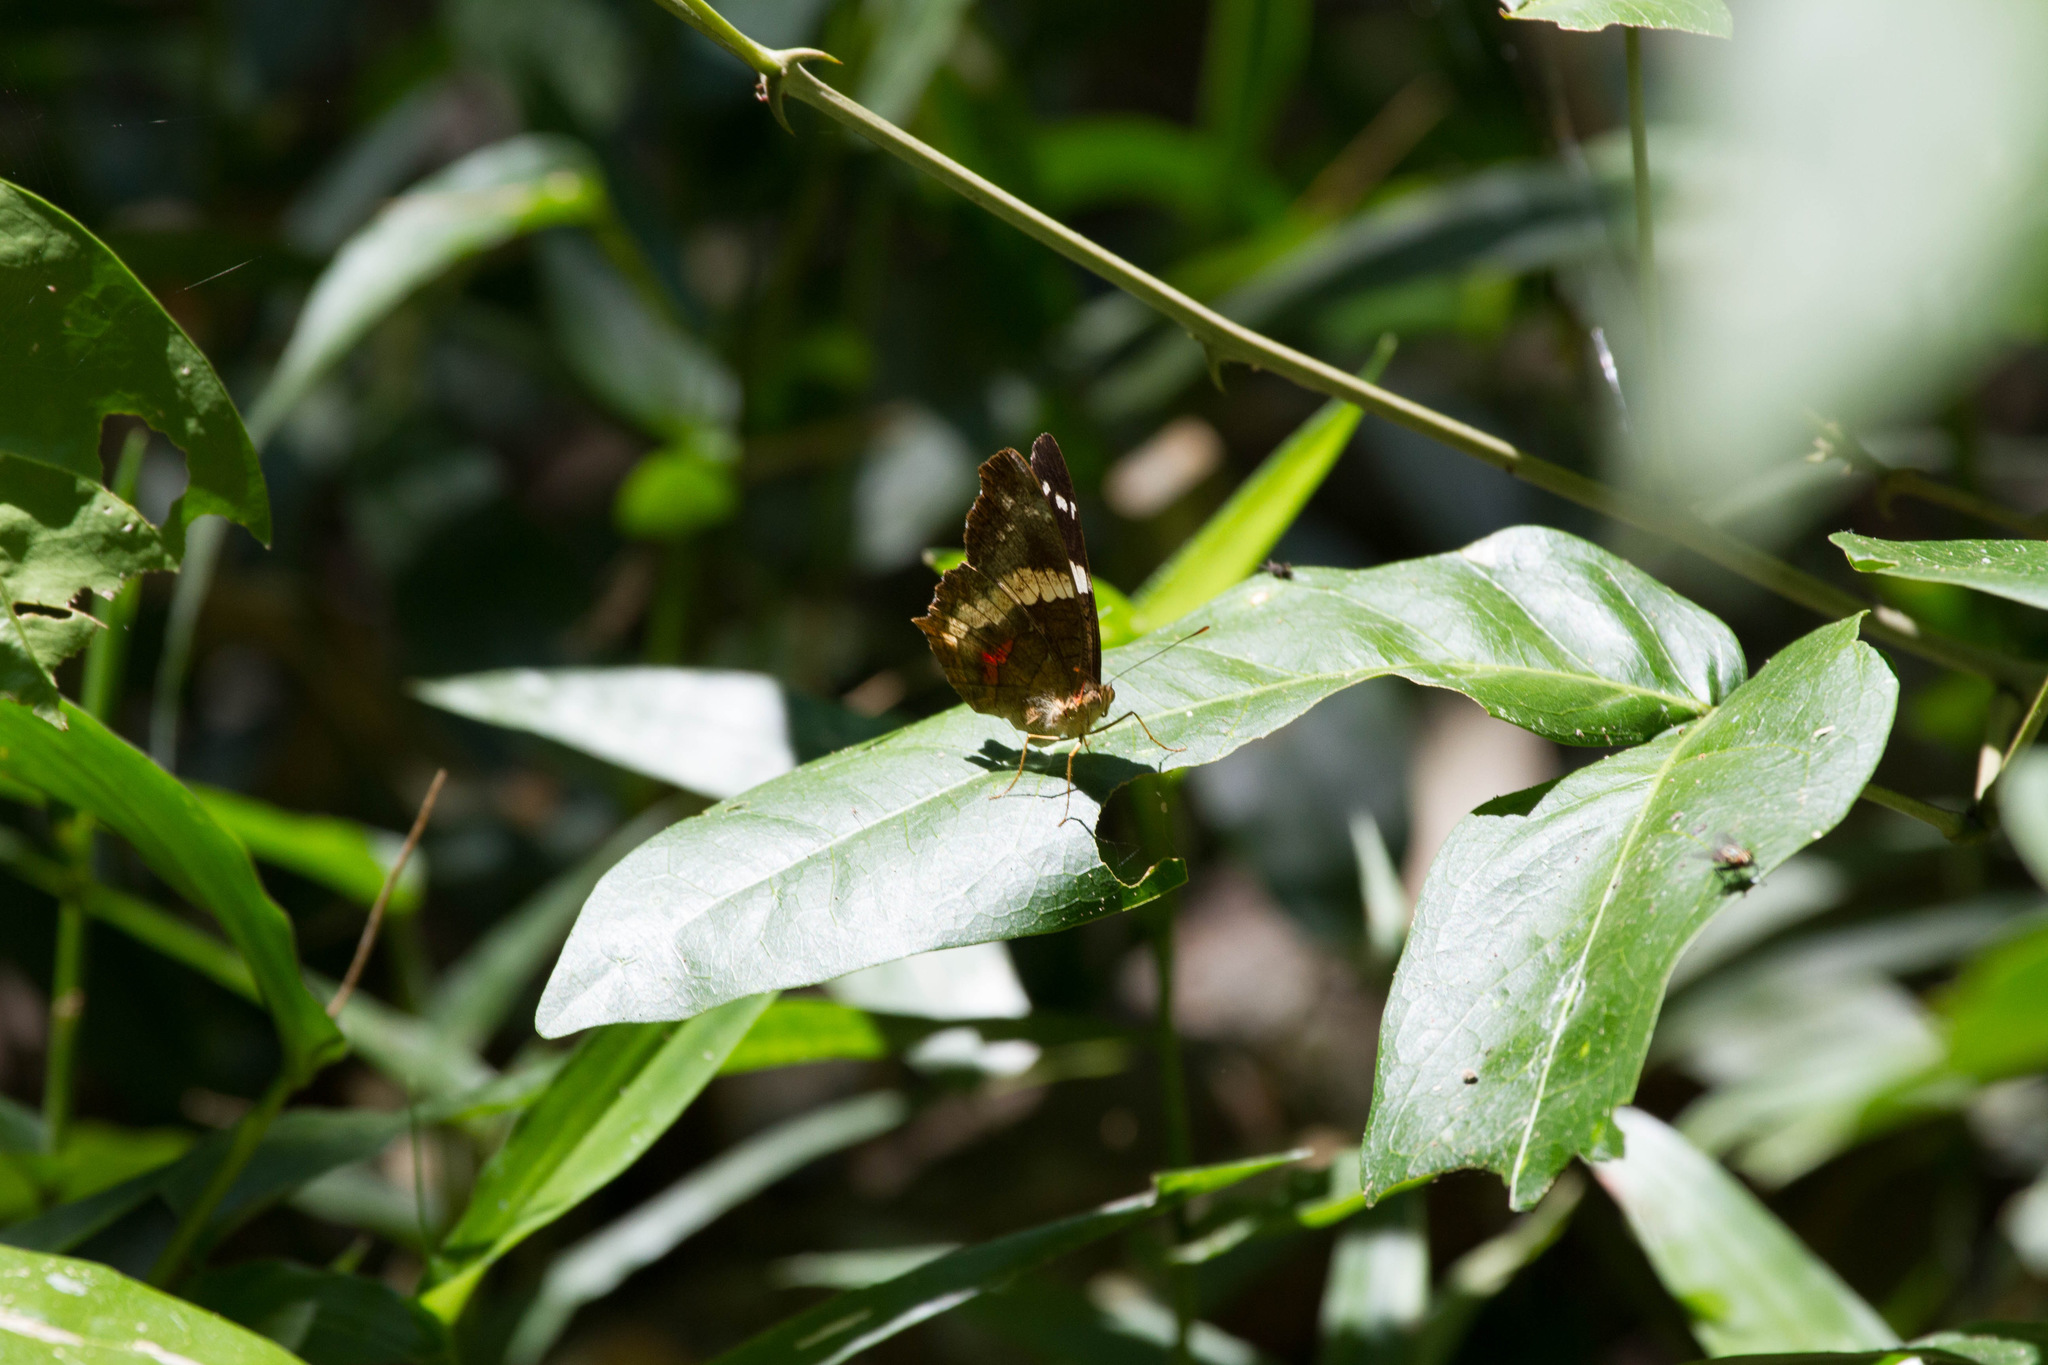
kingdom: Animalia
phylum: Arthropoda
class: Insecta
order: Lepidoptera
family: Nymphalidae
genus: Anartia
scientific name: Anartia fatima
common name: Banded peacock
